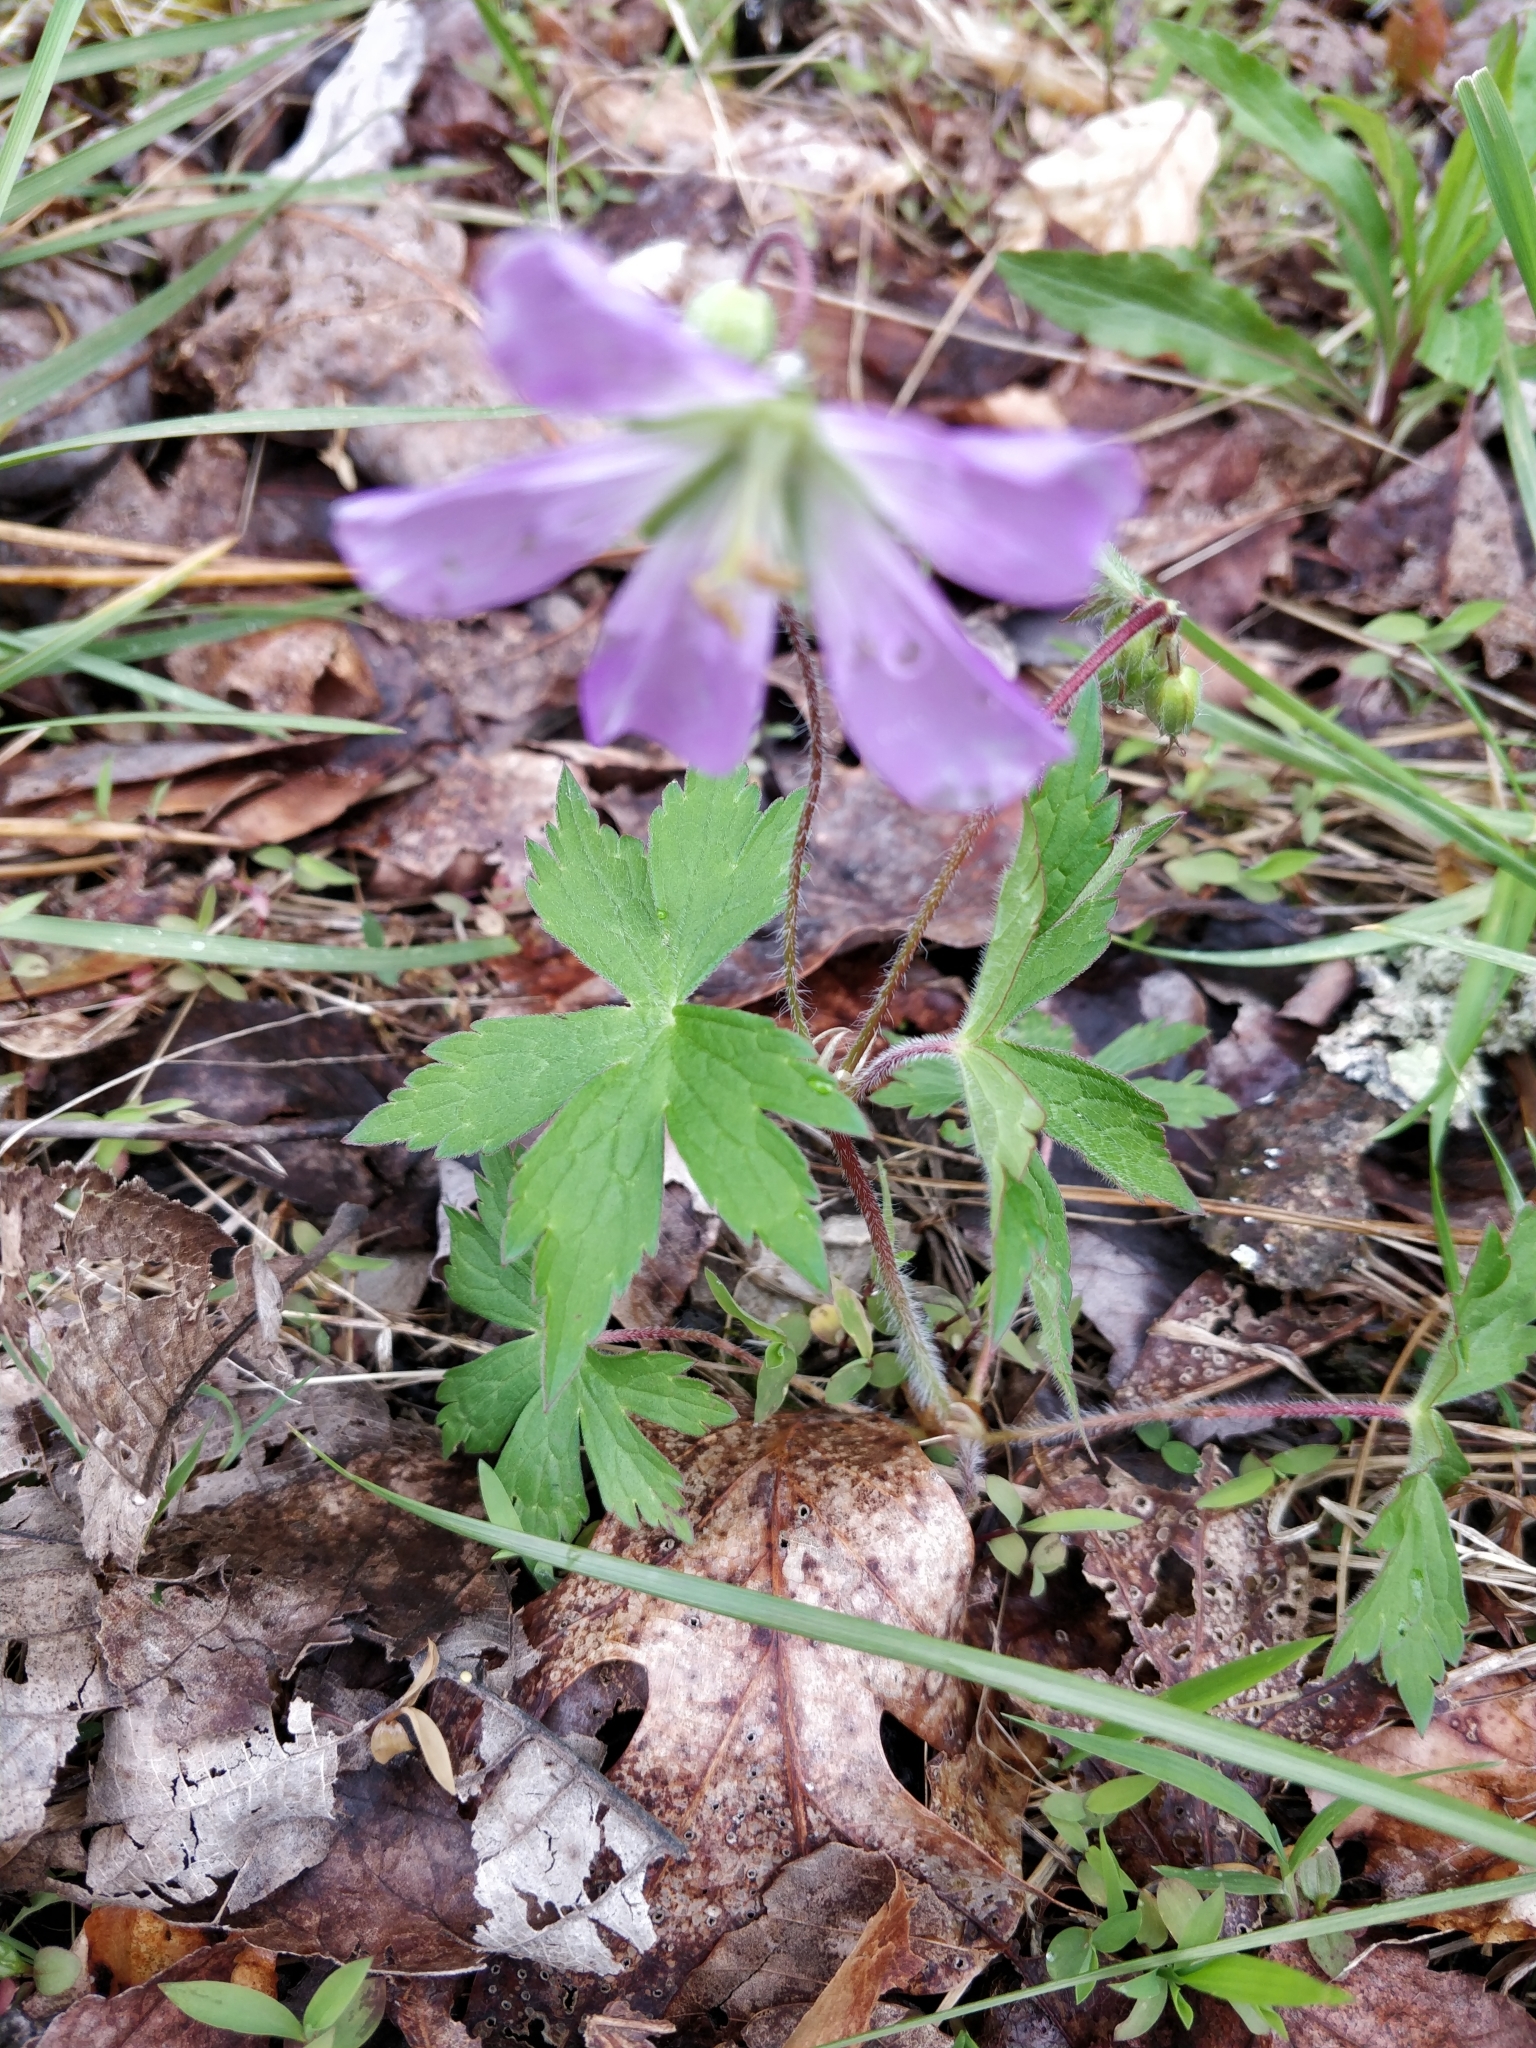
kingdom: Plantae
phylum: Tracheophyta
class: Magnoliopsida
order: Geraniales
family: Geraniaceae
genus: Geranium
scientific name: Geranium maculatum
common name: Spotted geranium
